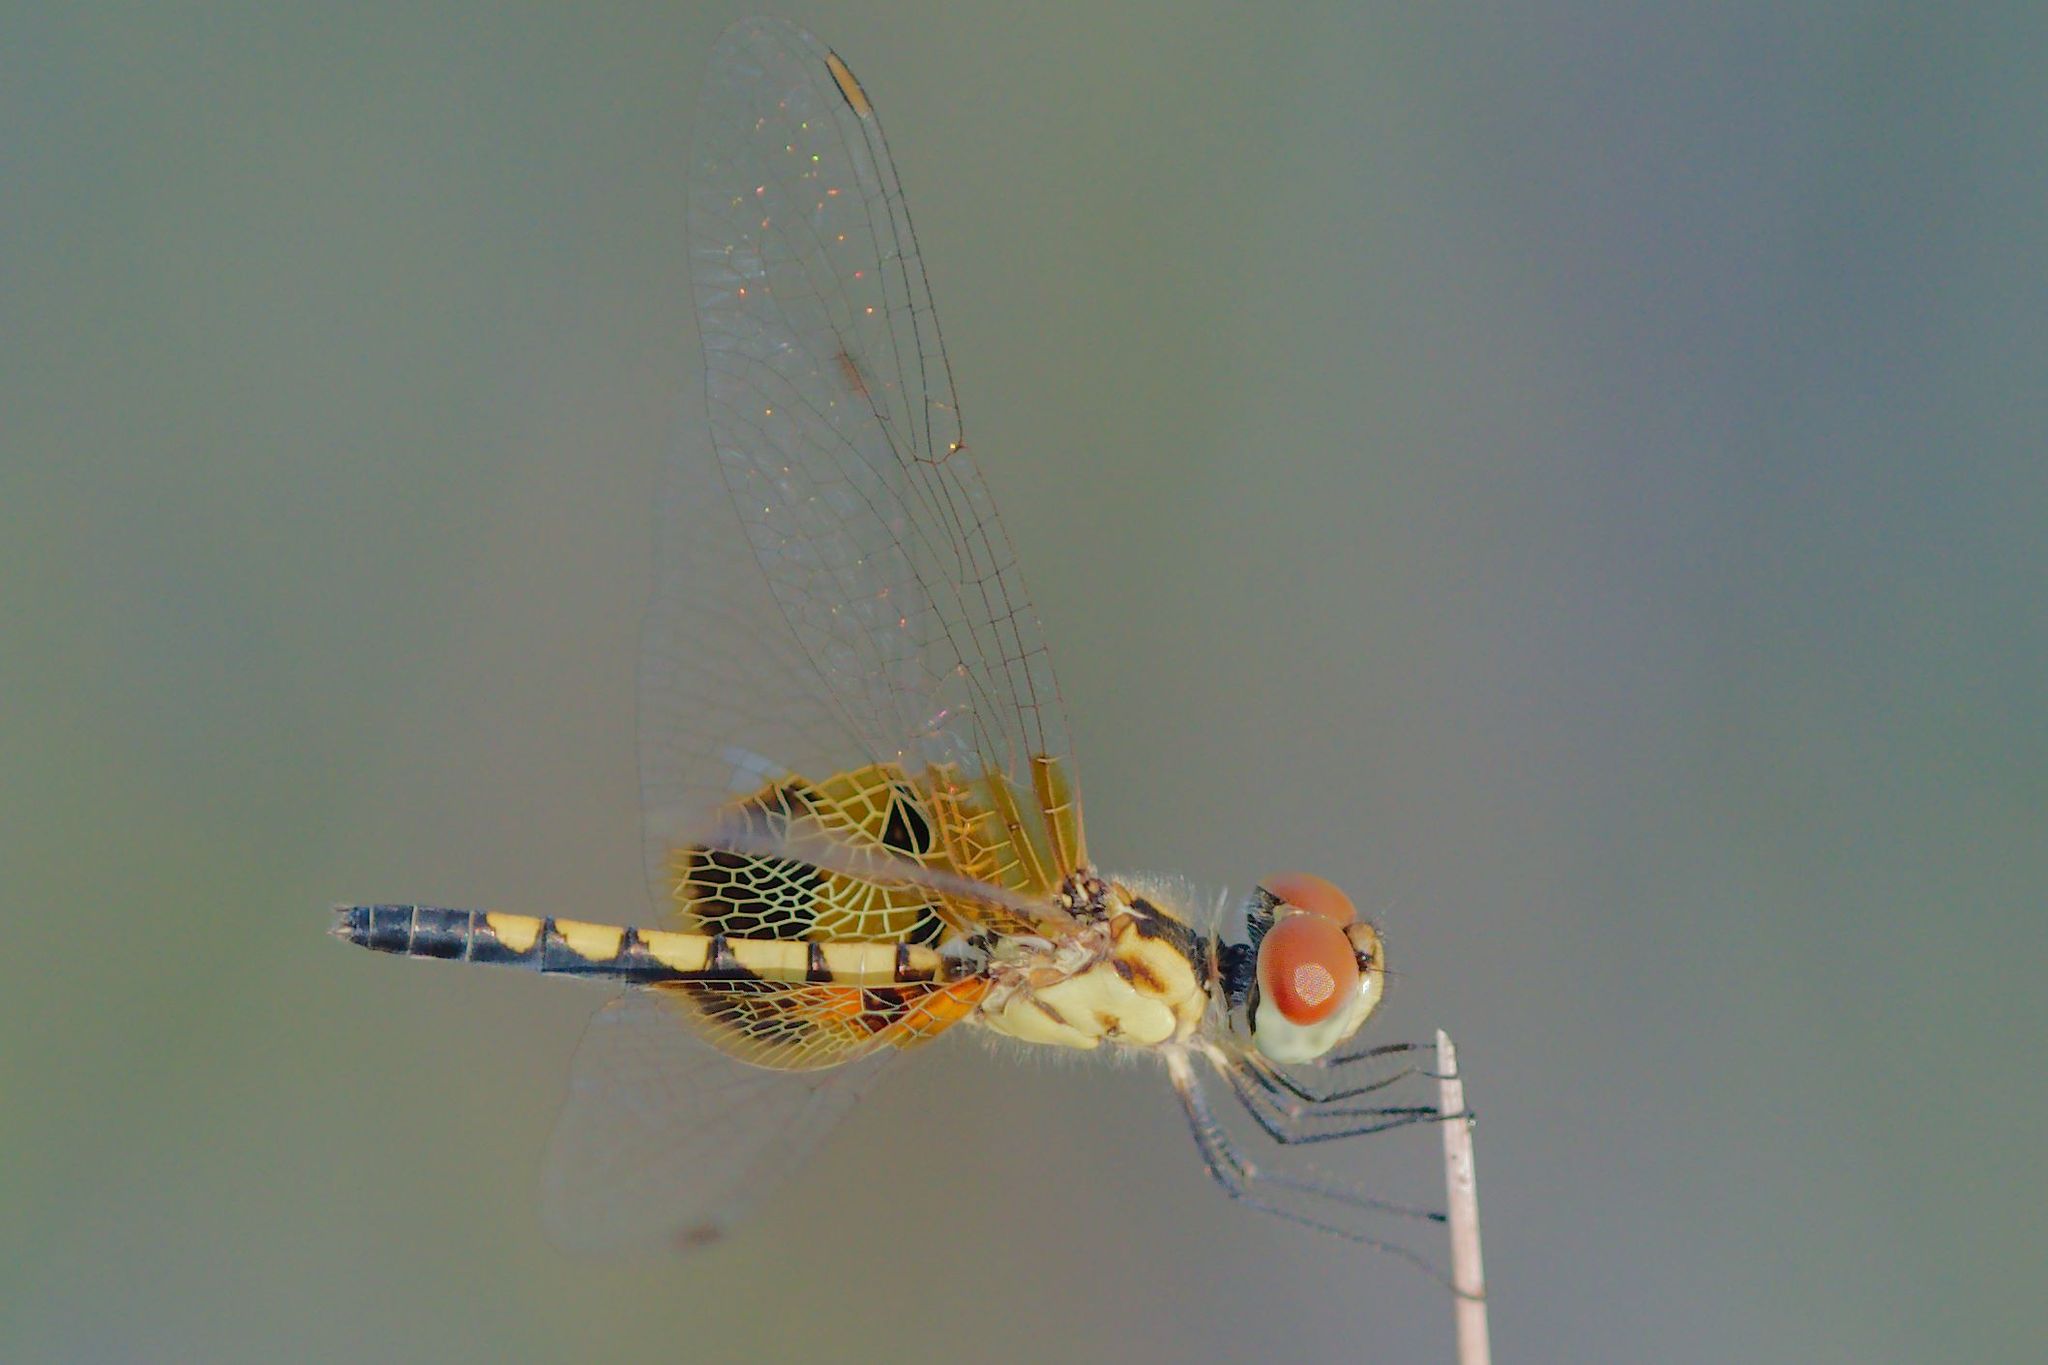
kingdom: Animalia
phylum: Arthropoda
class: Insecta
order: Odonata
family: Libellulidae
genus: Celithemis
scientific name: Celithemis amanda
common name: Amanda's pennant
